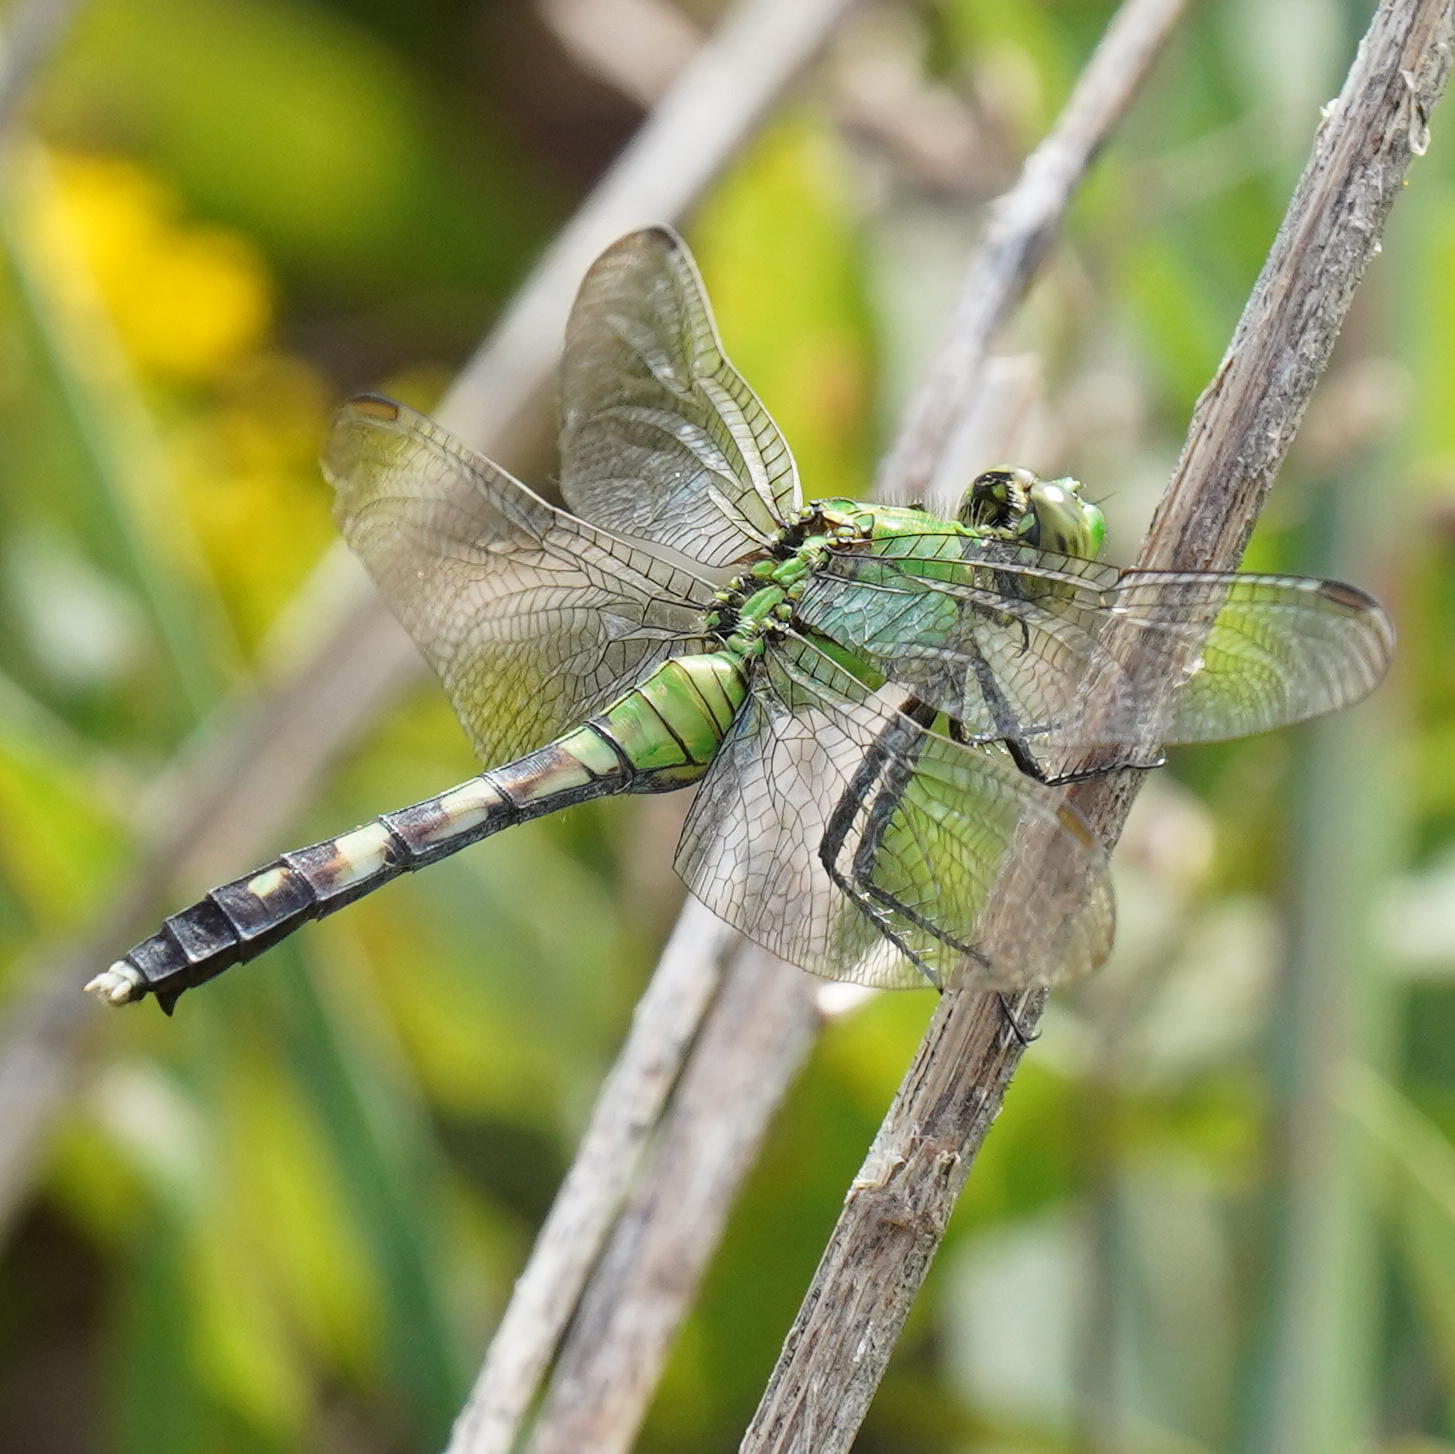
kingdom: Animalia
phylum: Arthropoda
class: Insecta
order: Odonata
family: Libellulidae
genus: Erythemis
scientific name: Erythemis simplicicollis
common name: Eastern pondhawk
